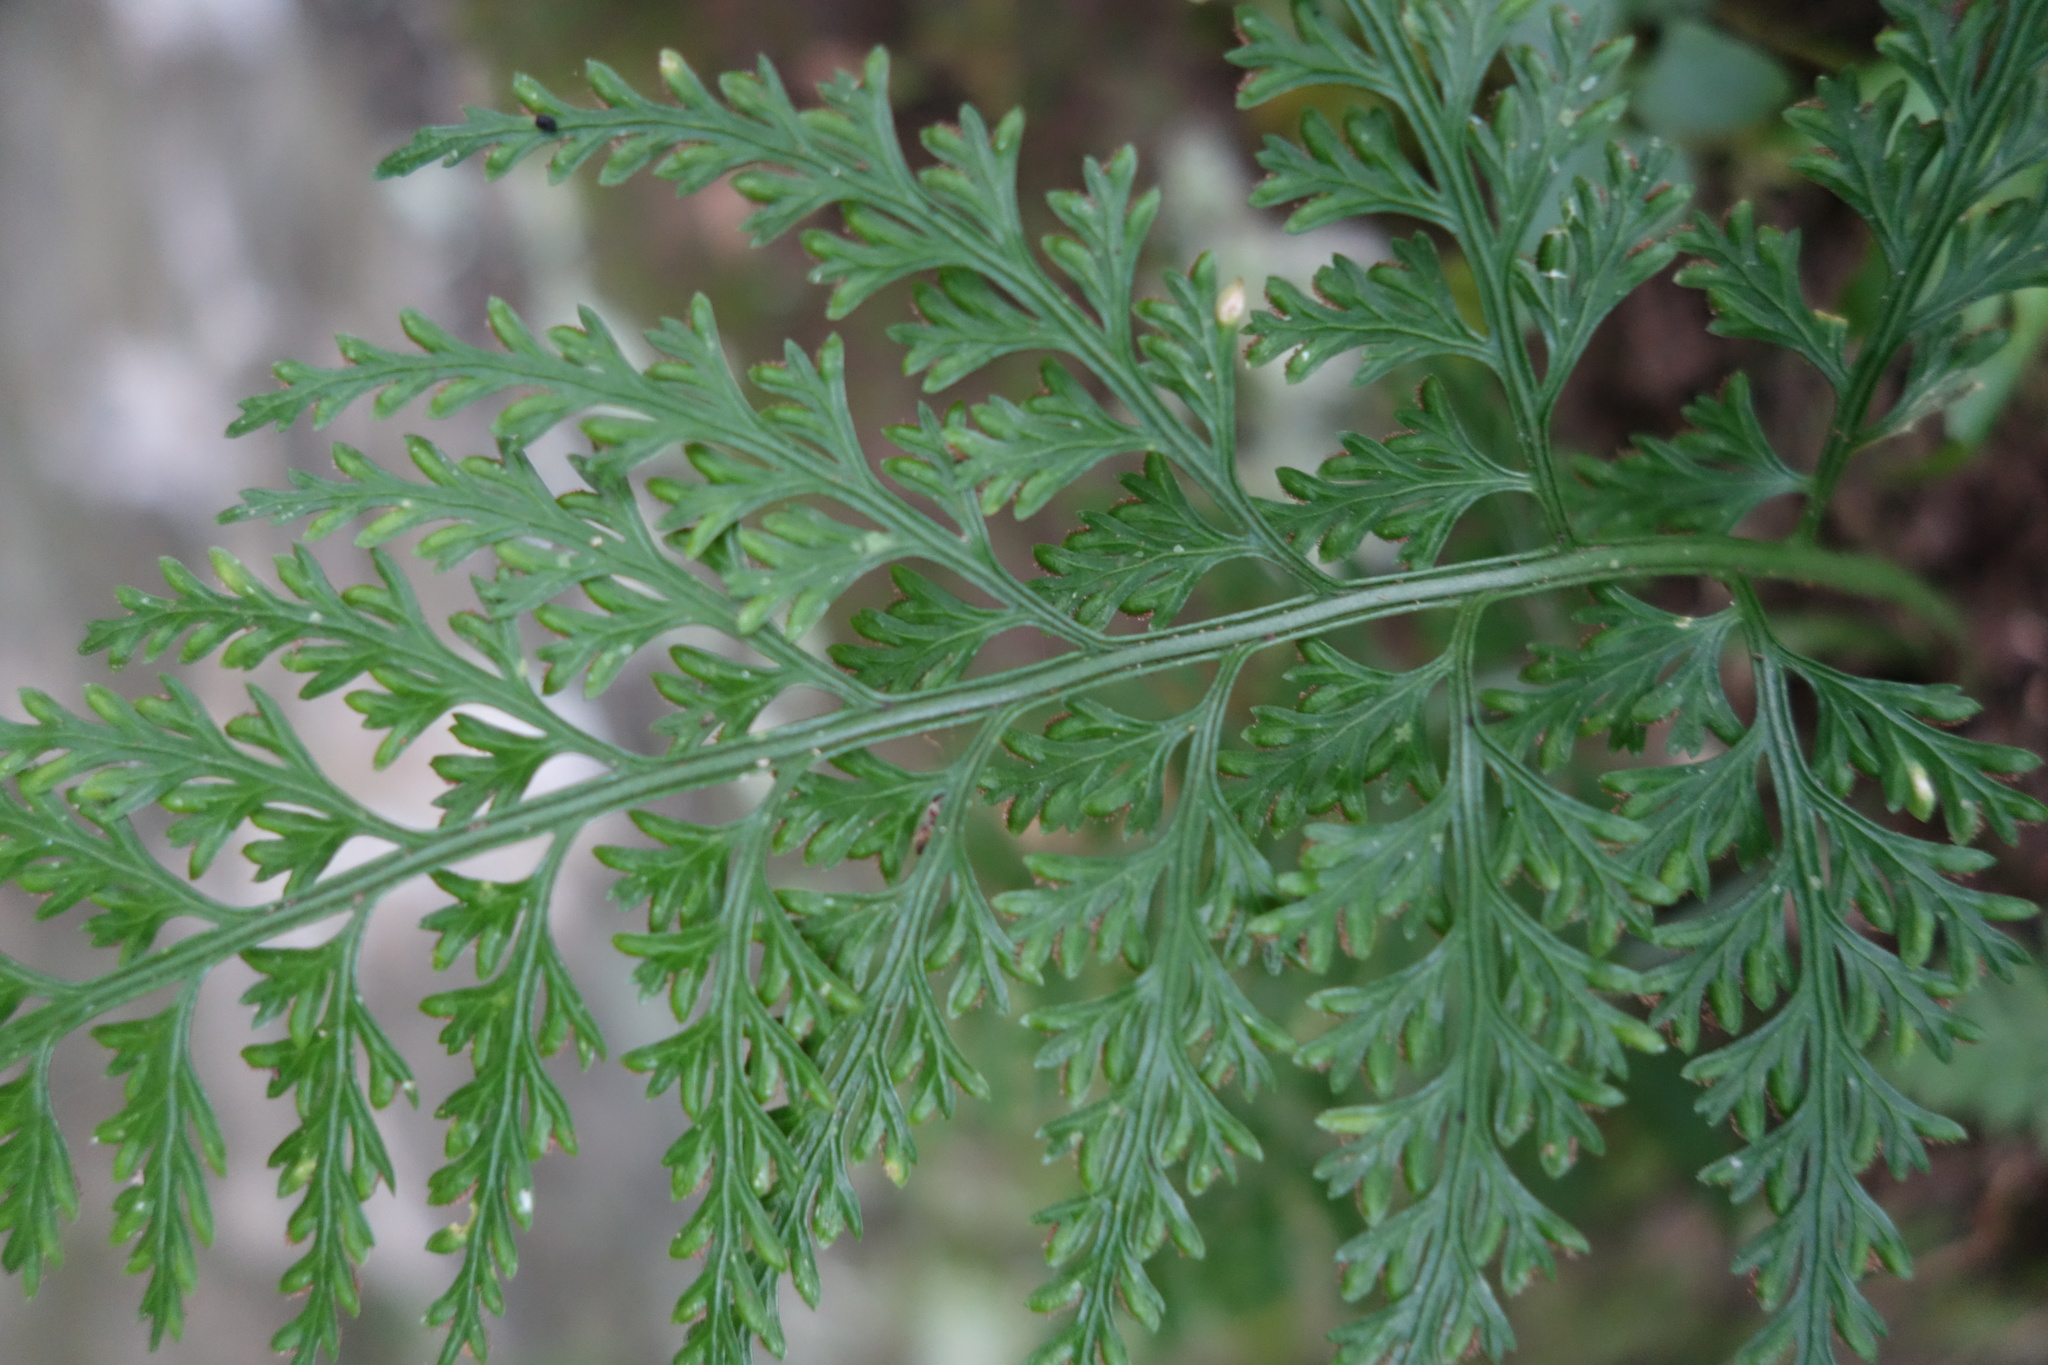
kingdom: Plantae
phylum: Tracheophyta
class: Polypodiopsida
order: Polypodiales
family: Aspleniaceae
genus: Asplenium
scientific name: Asplenium ritoense
